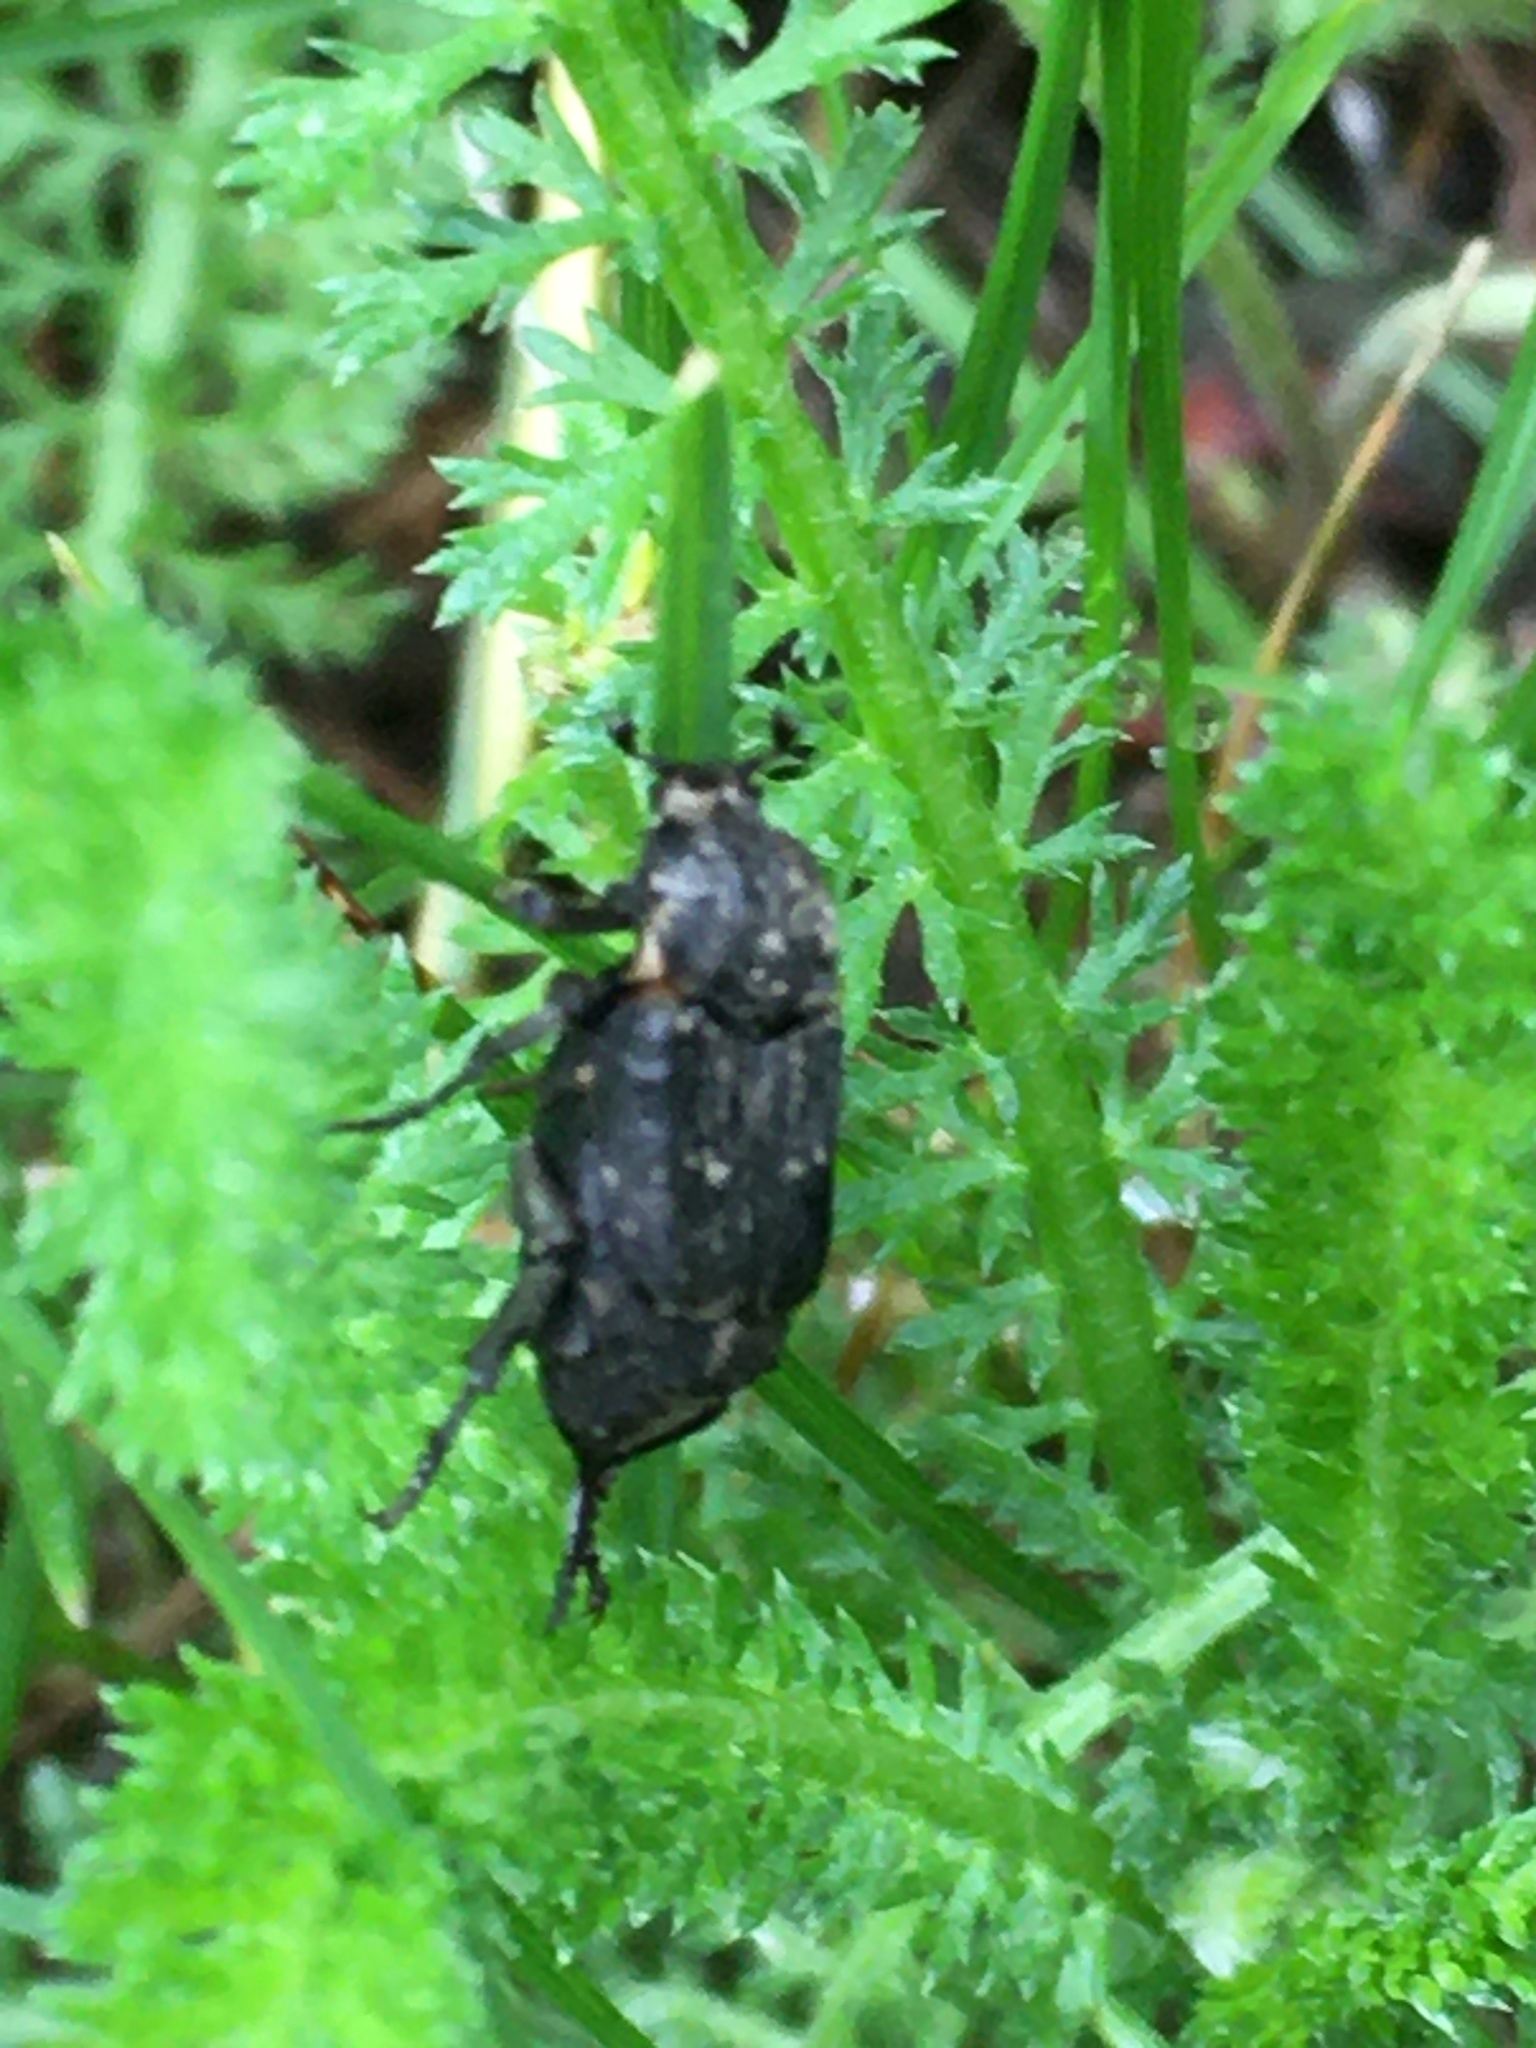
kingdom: Animalia
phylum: Arthropoda
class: Insecta
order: Coleoptera
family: Scarabaeidae
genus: Valgus
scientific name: Valgus hemipterus
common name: Bug flower chafer
